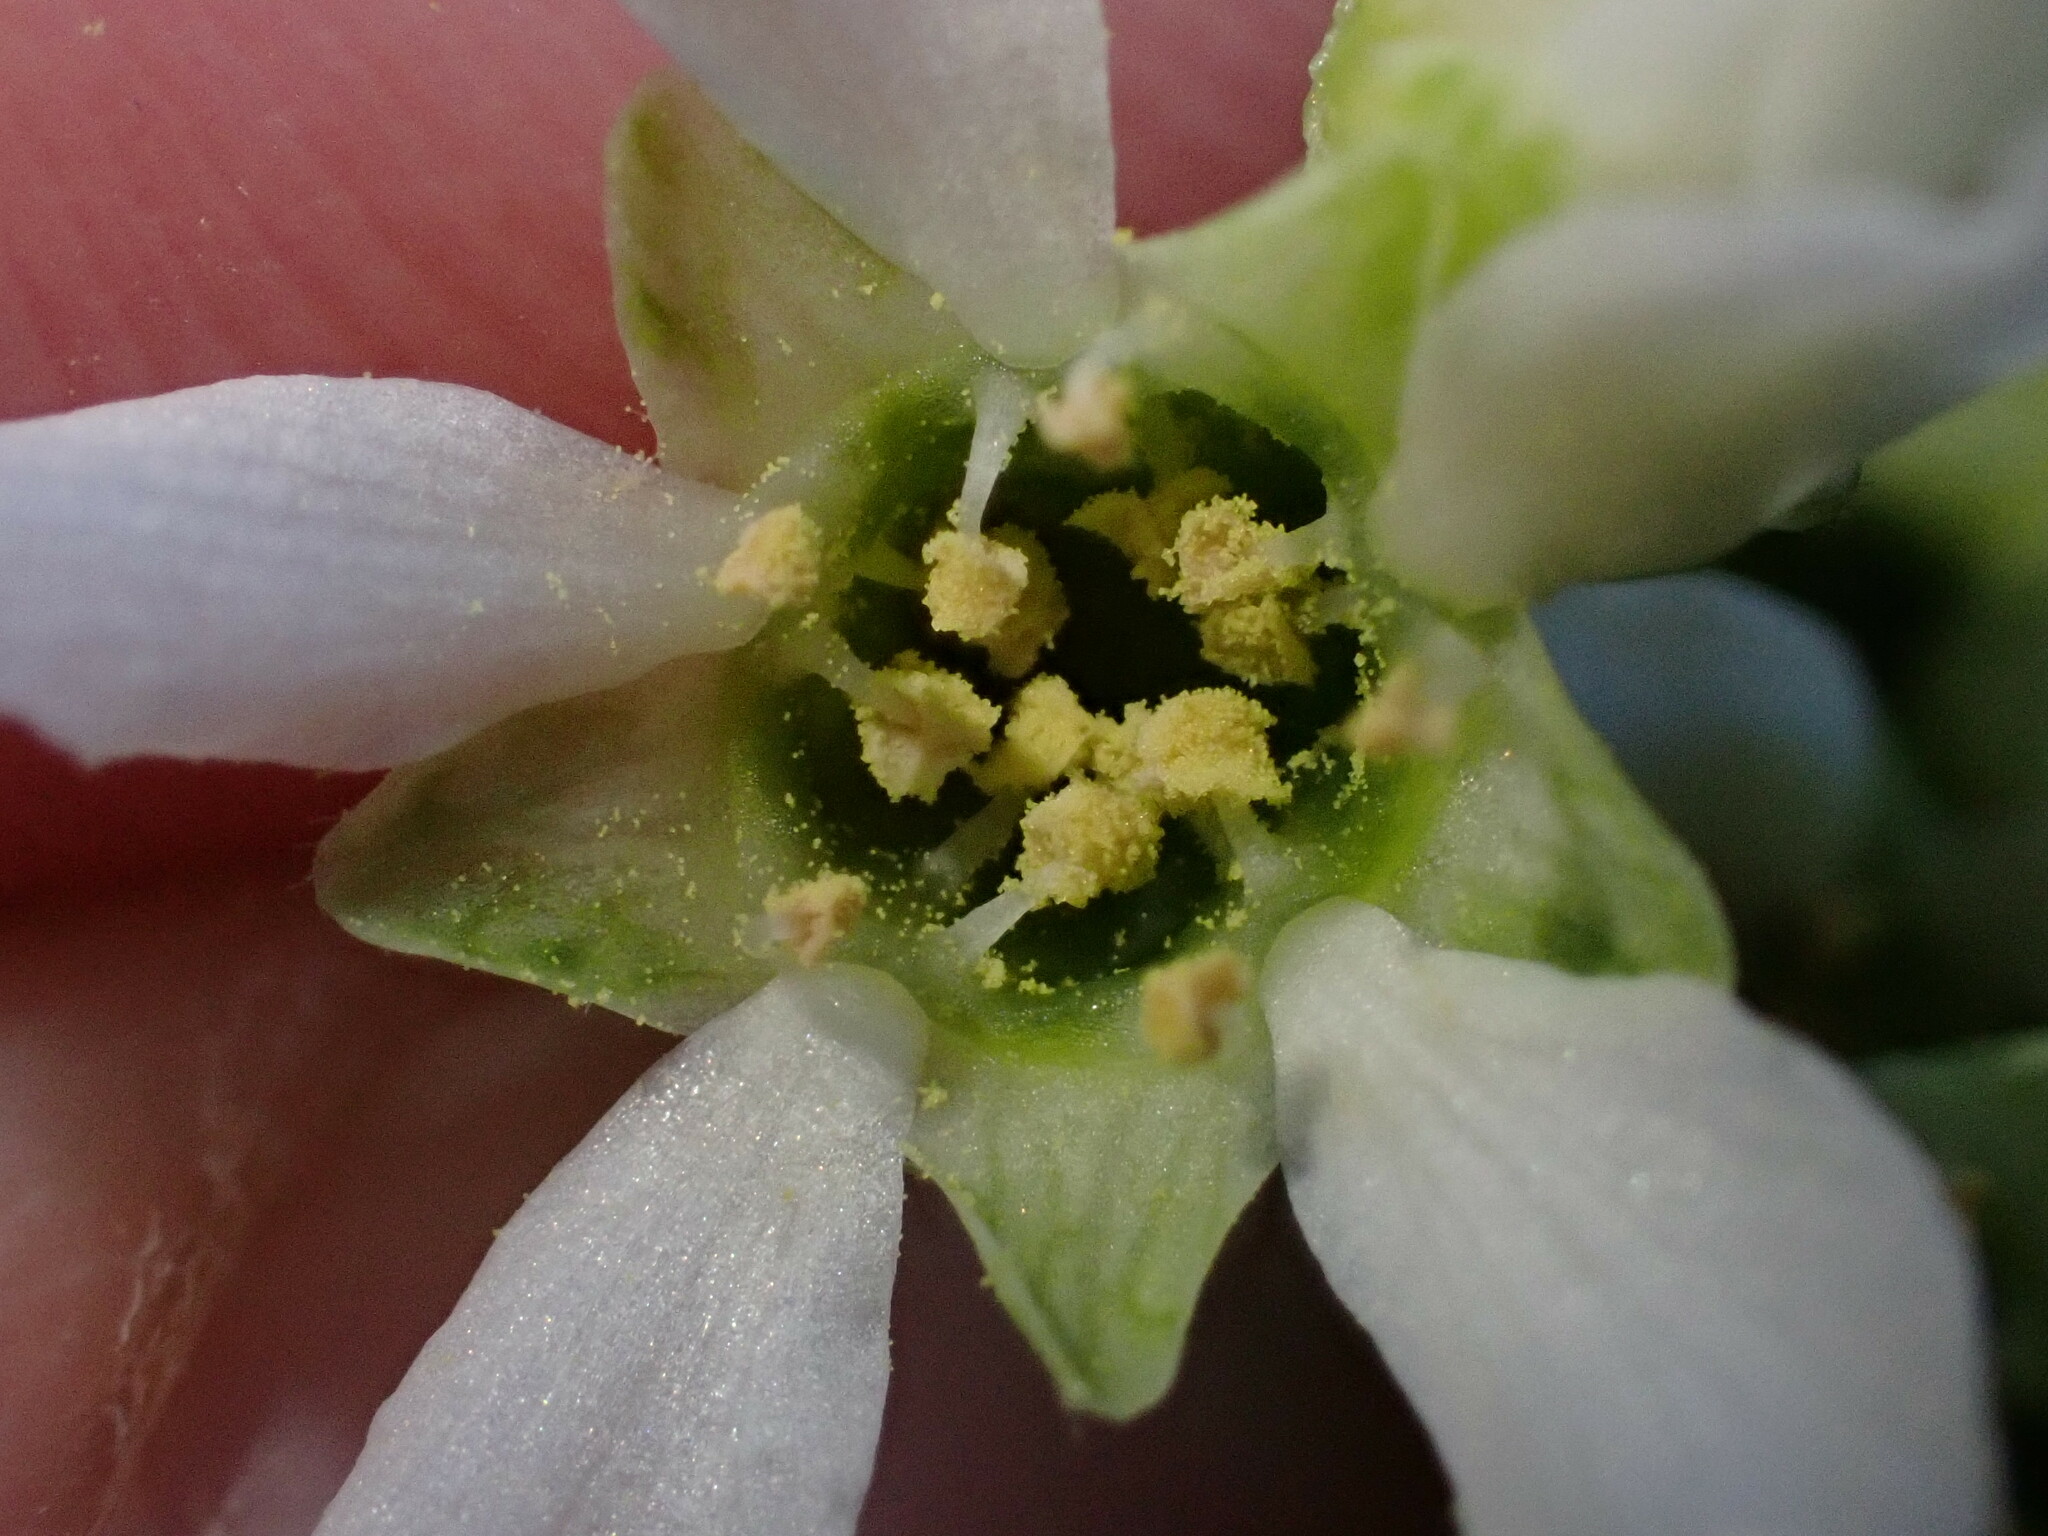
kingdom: Plantae
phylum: Tracheophyta
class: Magnoliopsida
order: Rosales
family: Rosaceae
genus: Oemleria
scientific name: Oemleria cerasiformis
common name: Osoberry
